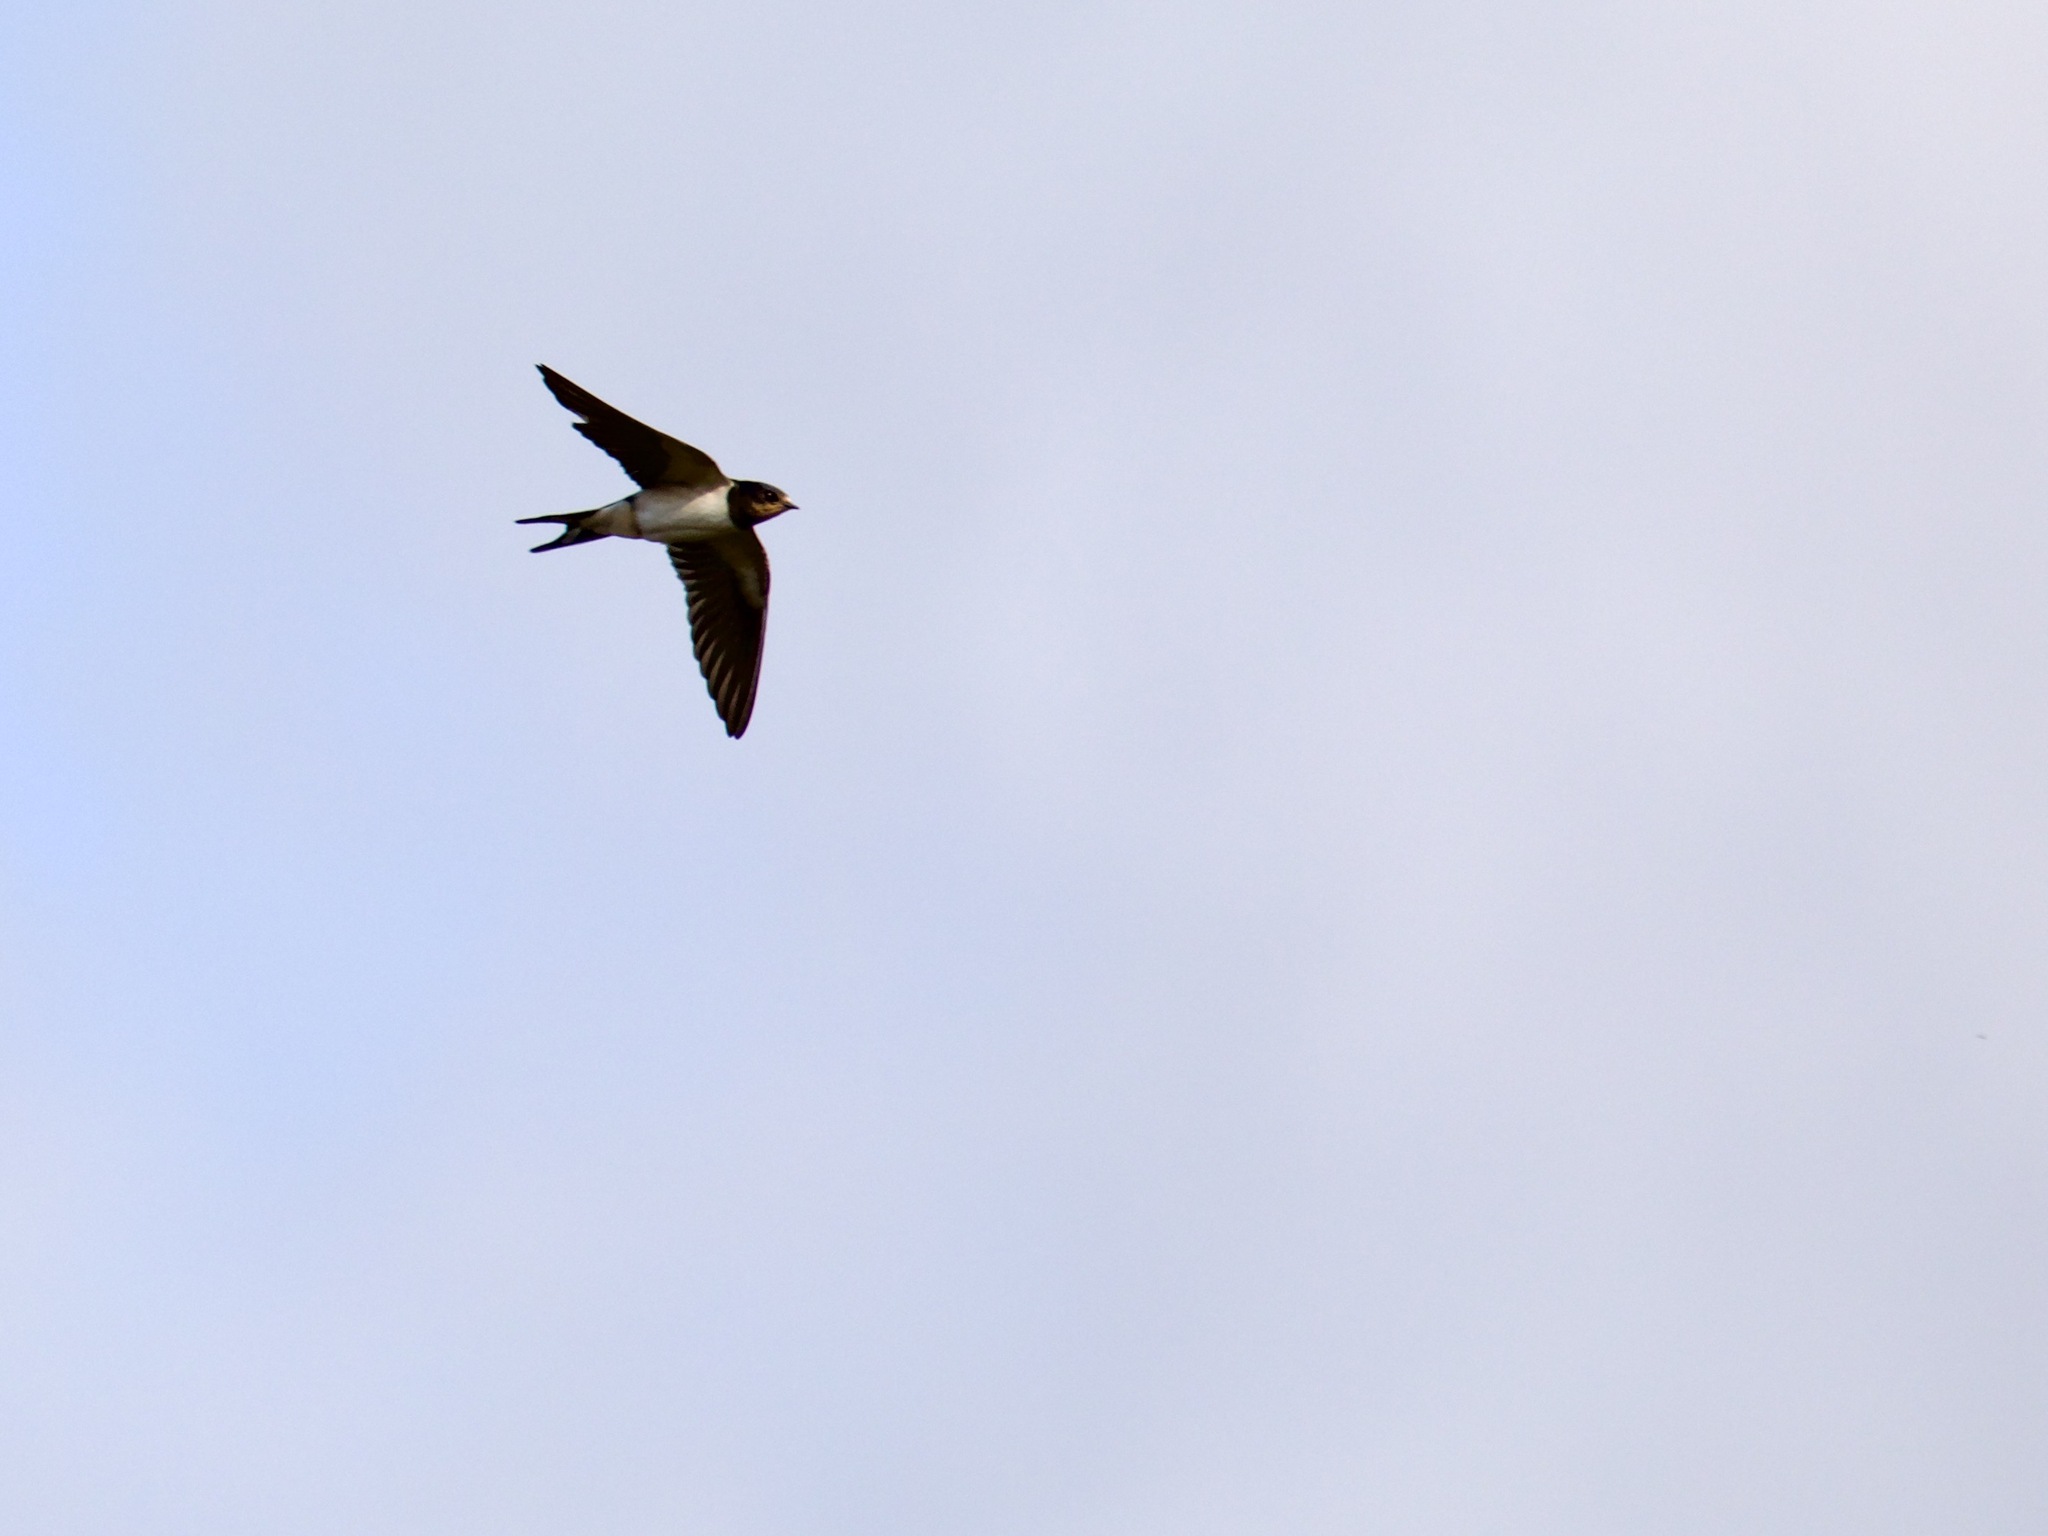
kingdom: Animalia
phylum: Chordata
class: Aves
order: Passeriformes
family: Hirundinidae
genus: Hirundo
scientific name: Hirundo rustica
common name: Barn swallow
